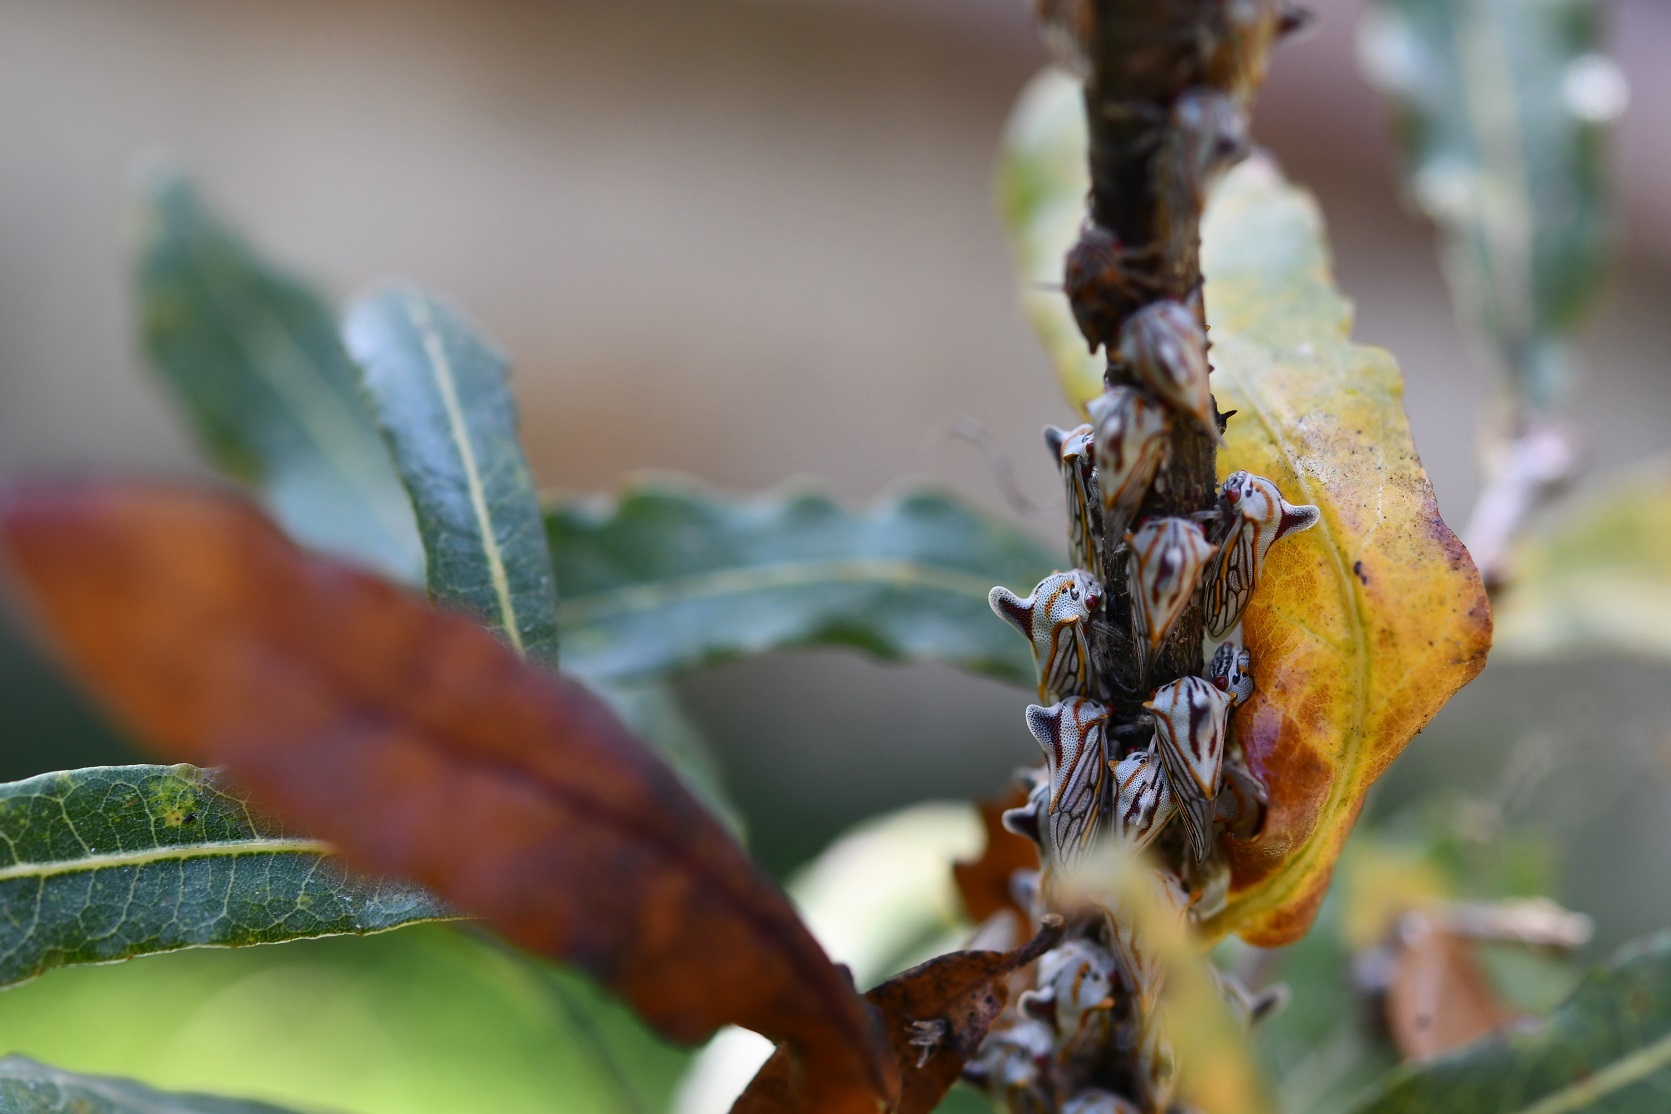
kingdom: Animalia
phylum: Arthropoda
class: Insecta
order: Hemiptera
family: Membracidae
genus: Platycotis
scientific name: Platycotis tuberculata
